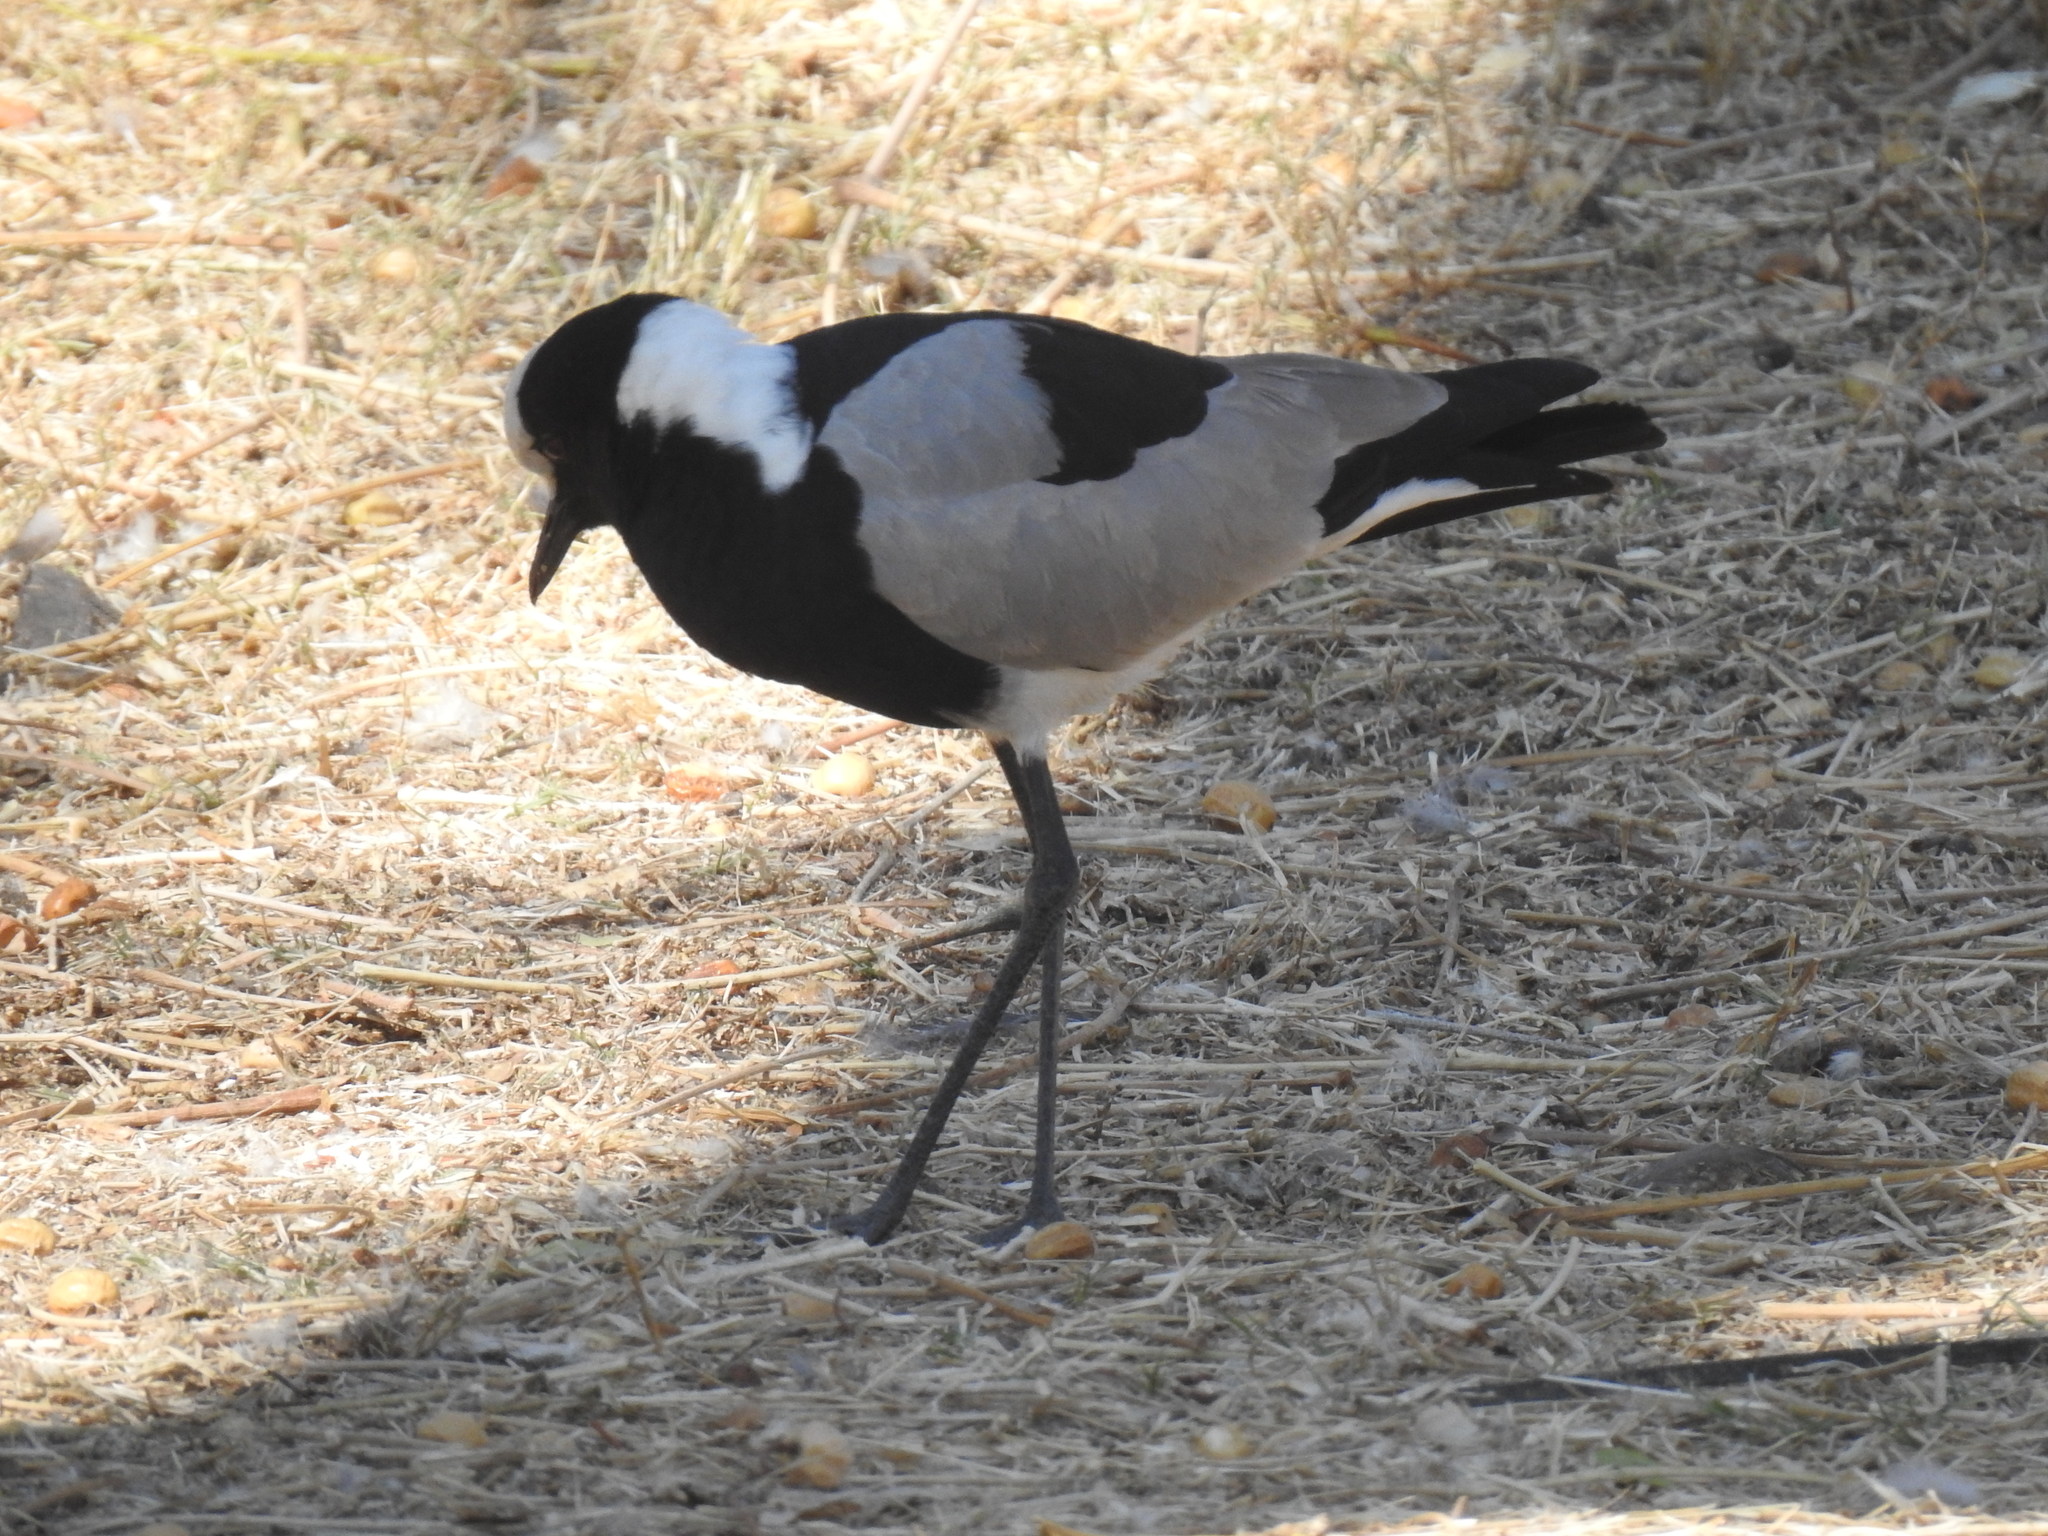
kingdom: Animalia
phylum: Chordata
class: Aves
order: Charadriiformes
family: Charadriidae
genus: Vanellus
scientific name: Vanellus armatus
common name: Blacksmith lapwing
